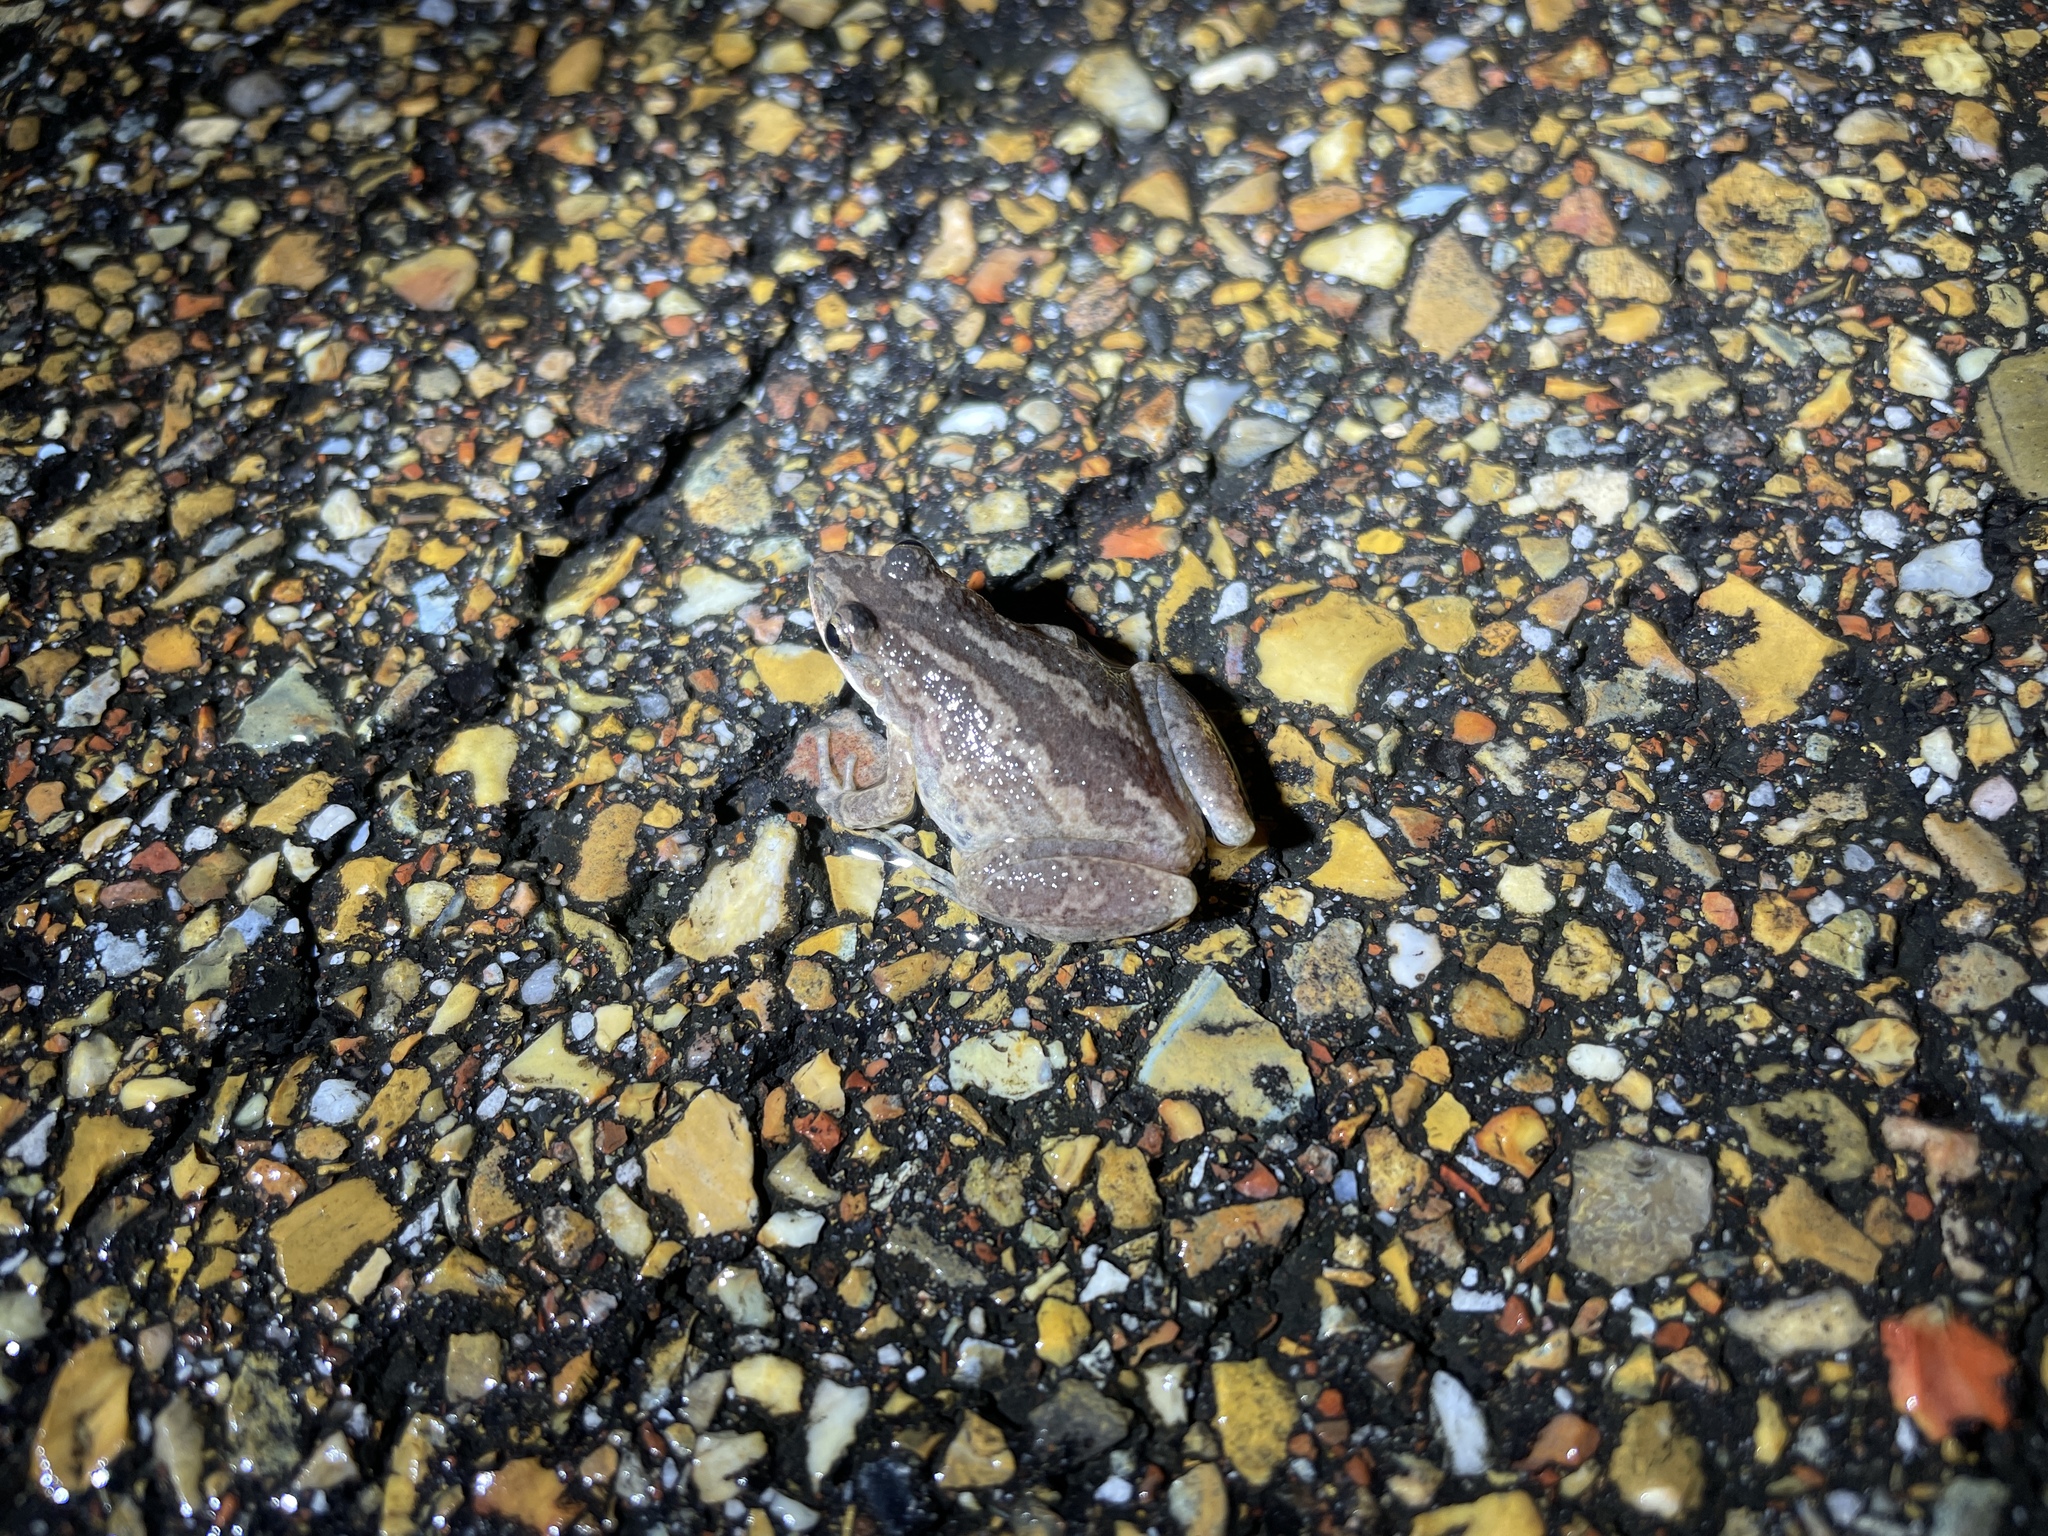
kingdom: Animalia
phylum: Chordata
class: Amphibia
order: Anura
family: Hylidae
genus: Pseudacris
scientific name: Pseudacris fouquettei
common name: Cajun chorus frog
